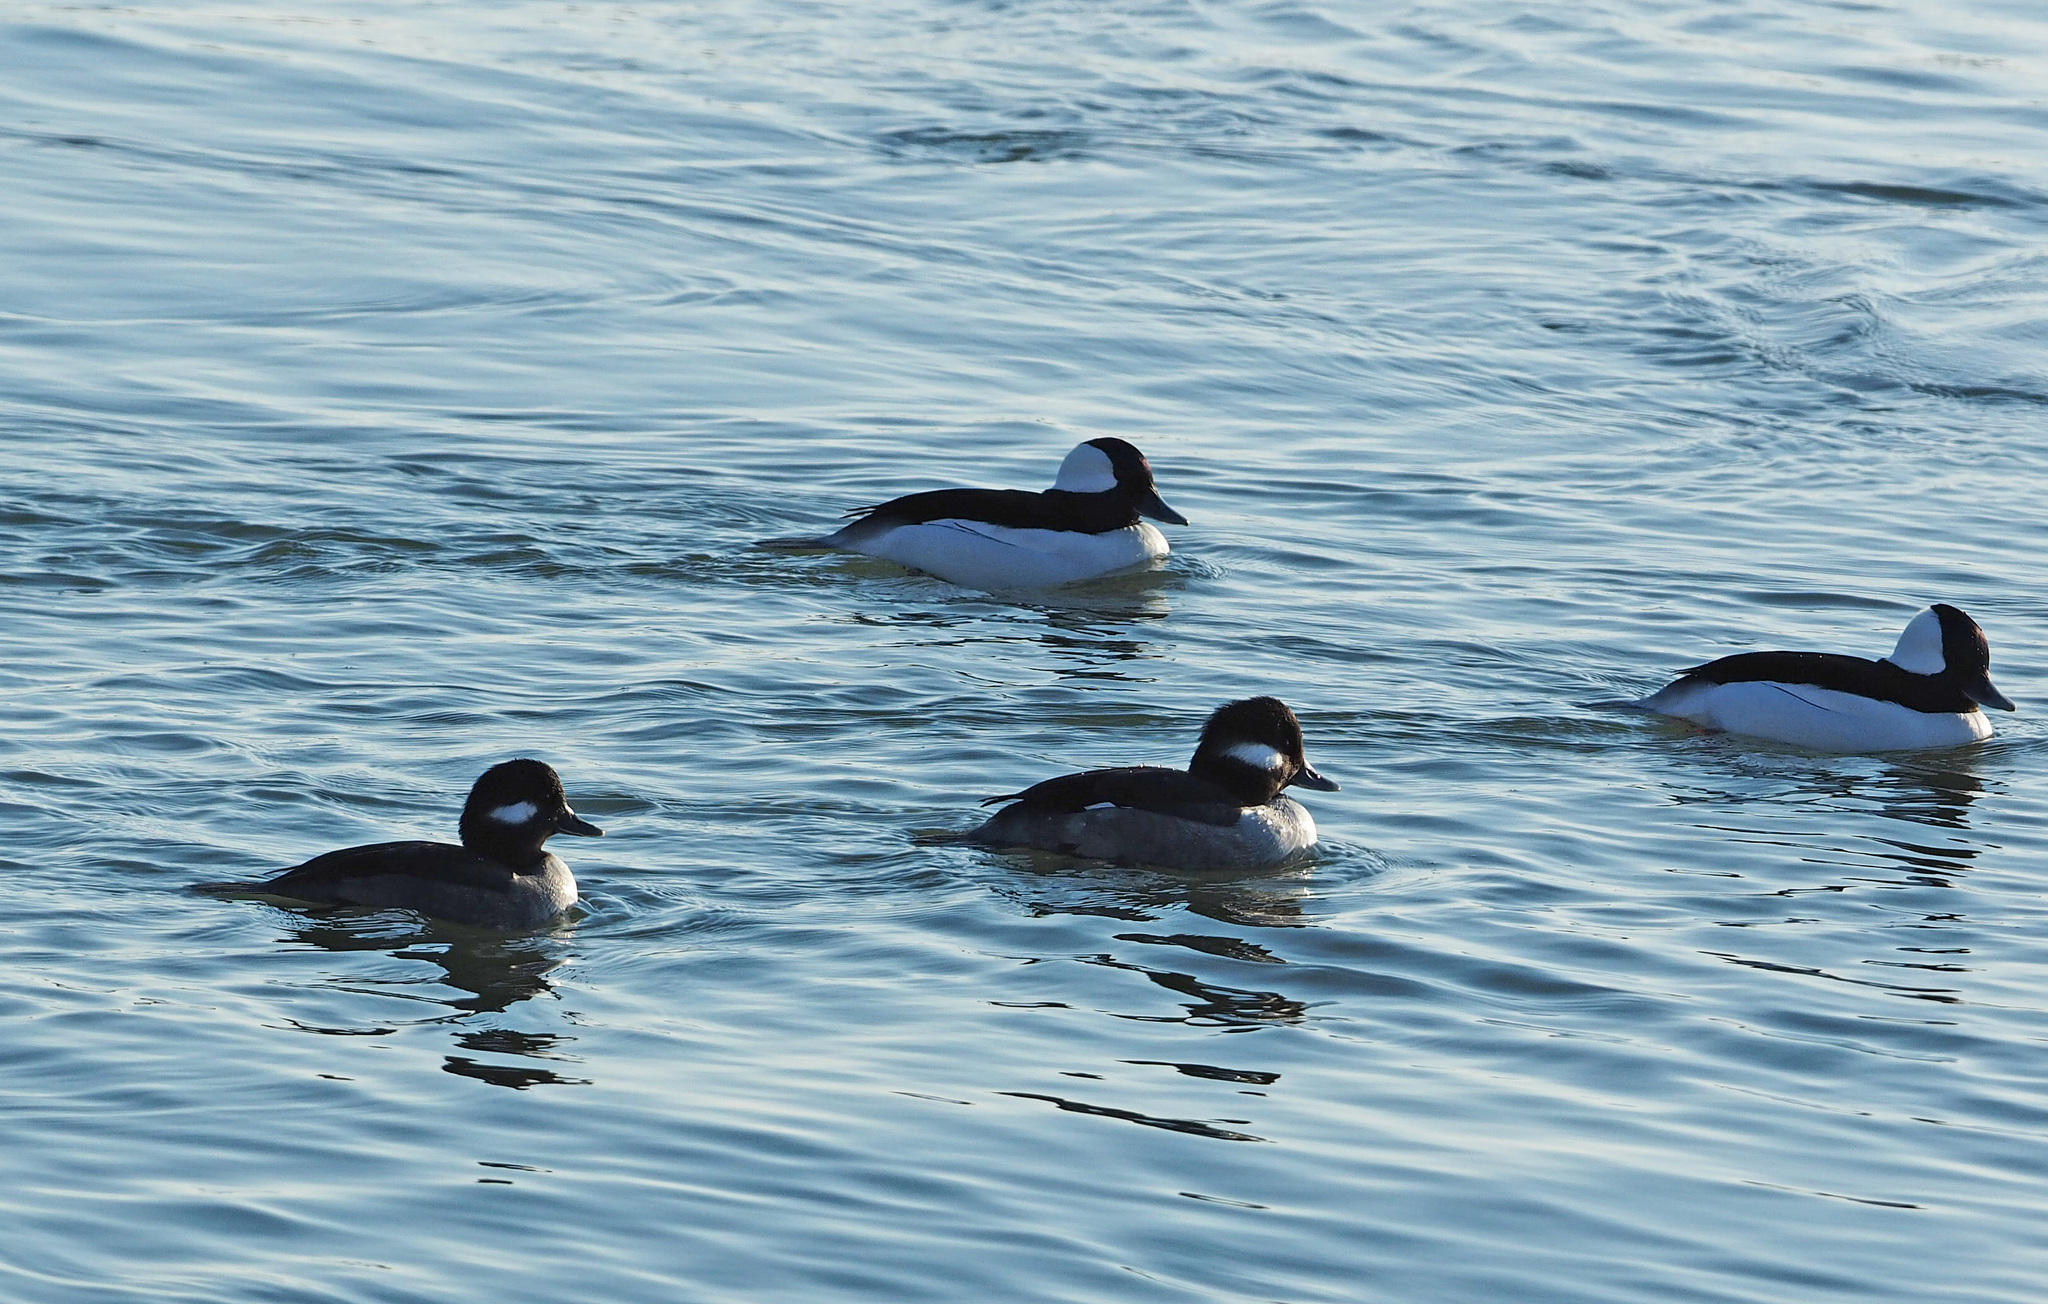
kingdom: Animalia
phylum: Chordata
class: Aves
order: Anseriformes
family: Anatidae
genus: Bucephala
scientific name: Bucephala albeola
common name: Bufflehead
